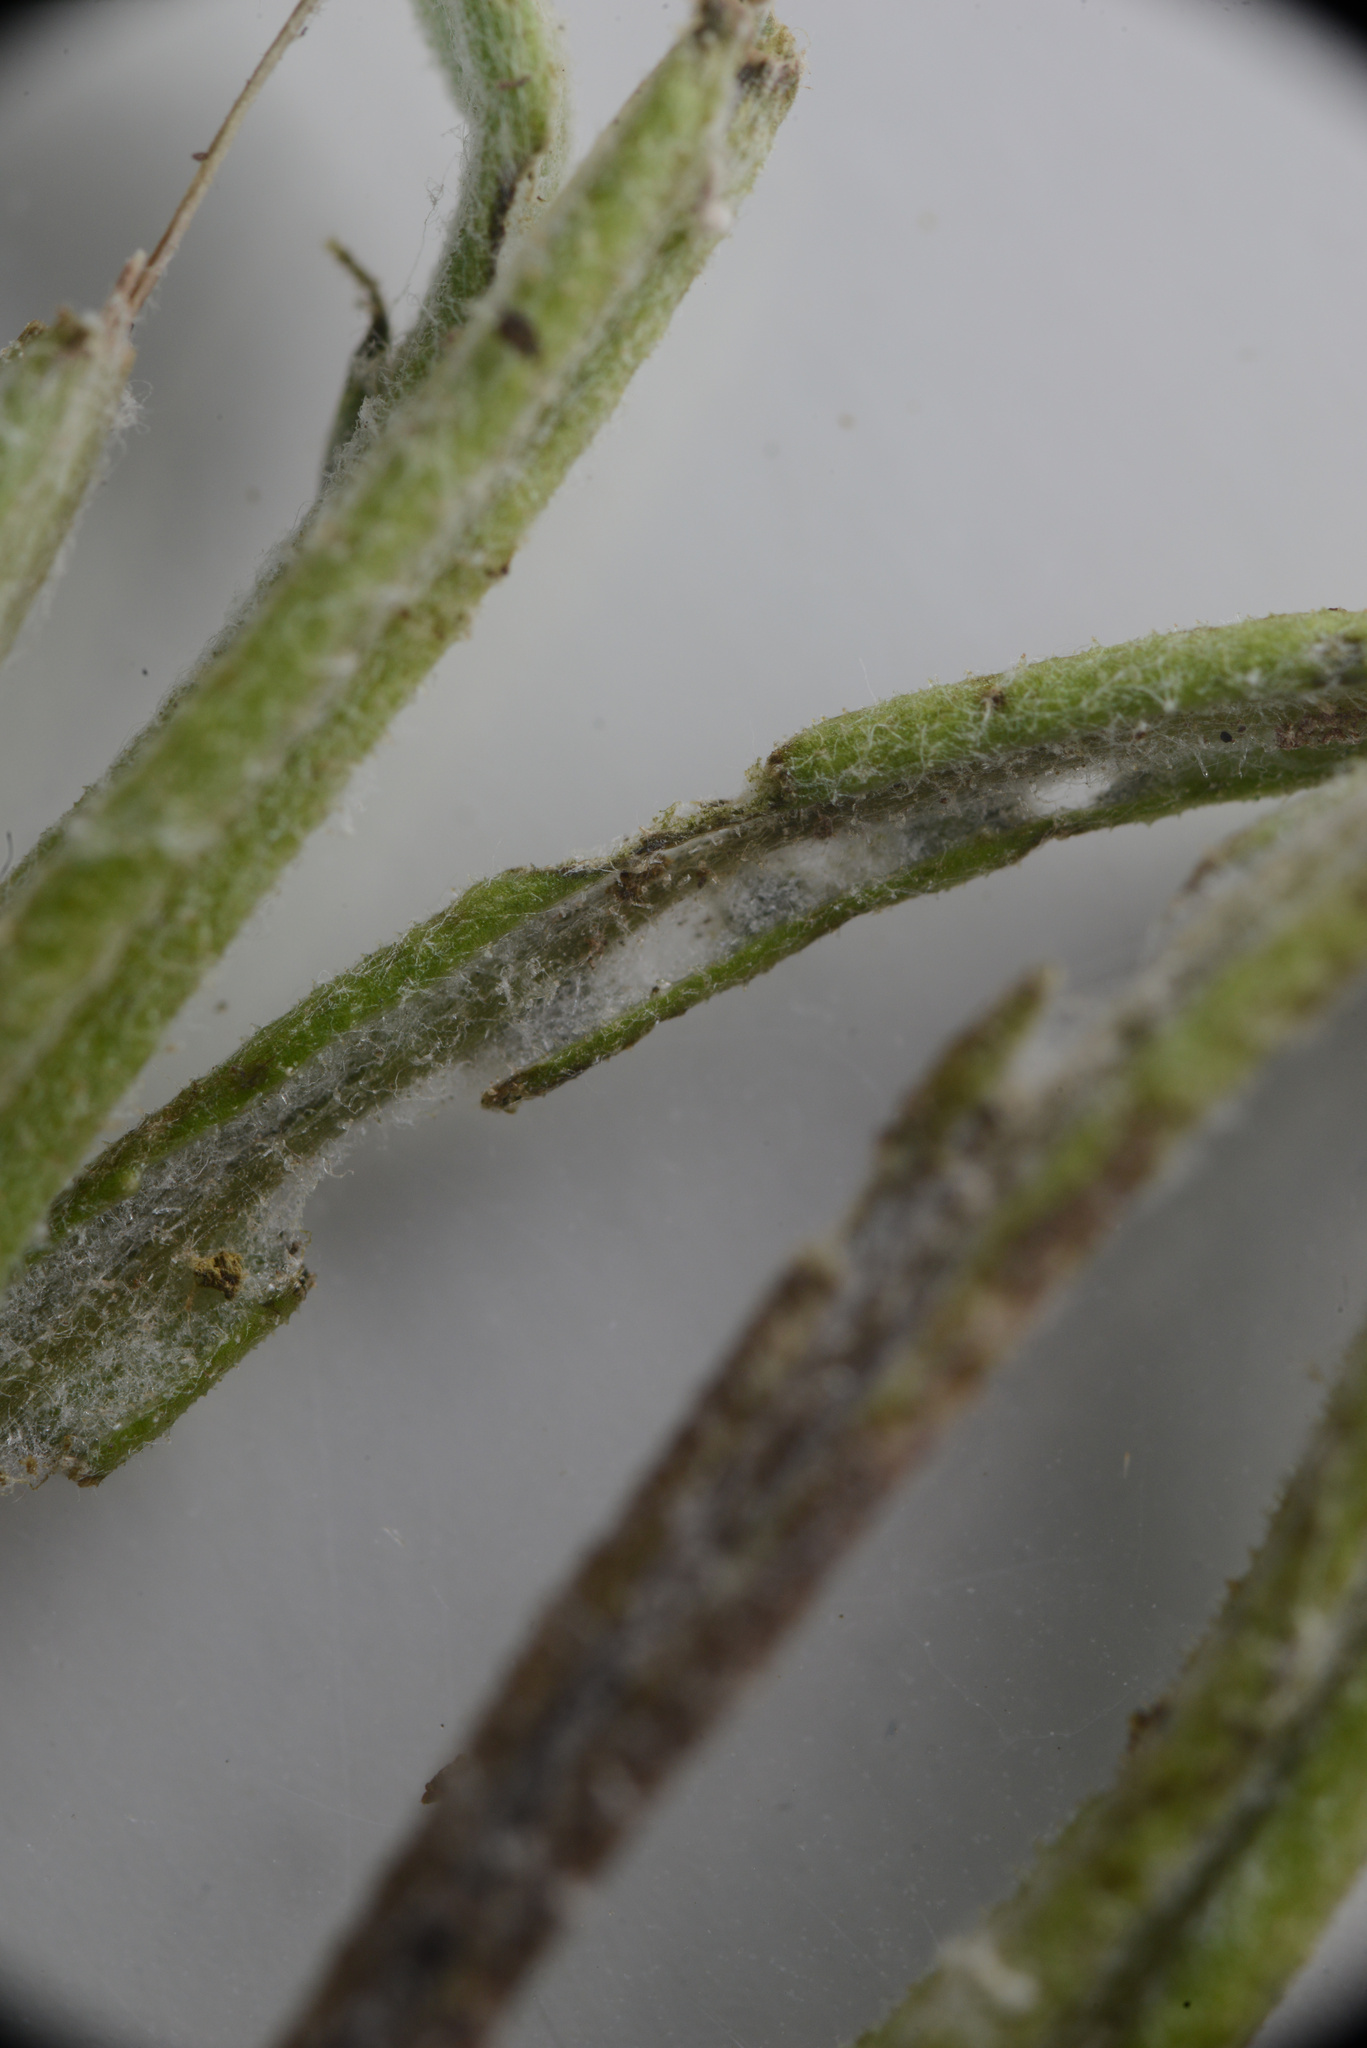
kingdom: Animalia
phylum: Arthropoda
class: Insecta
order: Coleoptera
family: Curculionidae
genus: Chalepistes
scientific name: Chalepistes spermophilus
